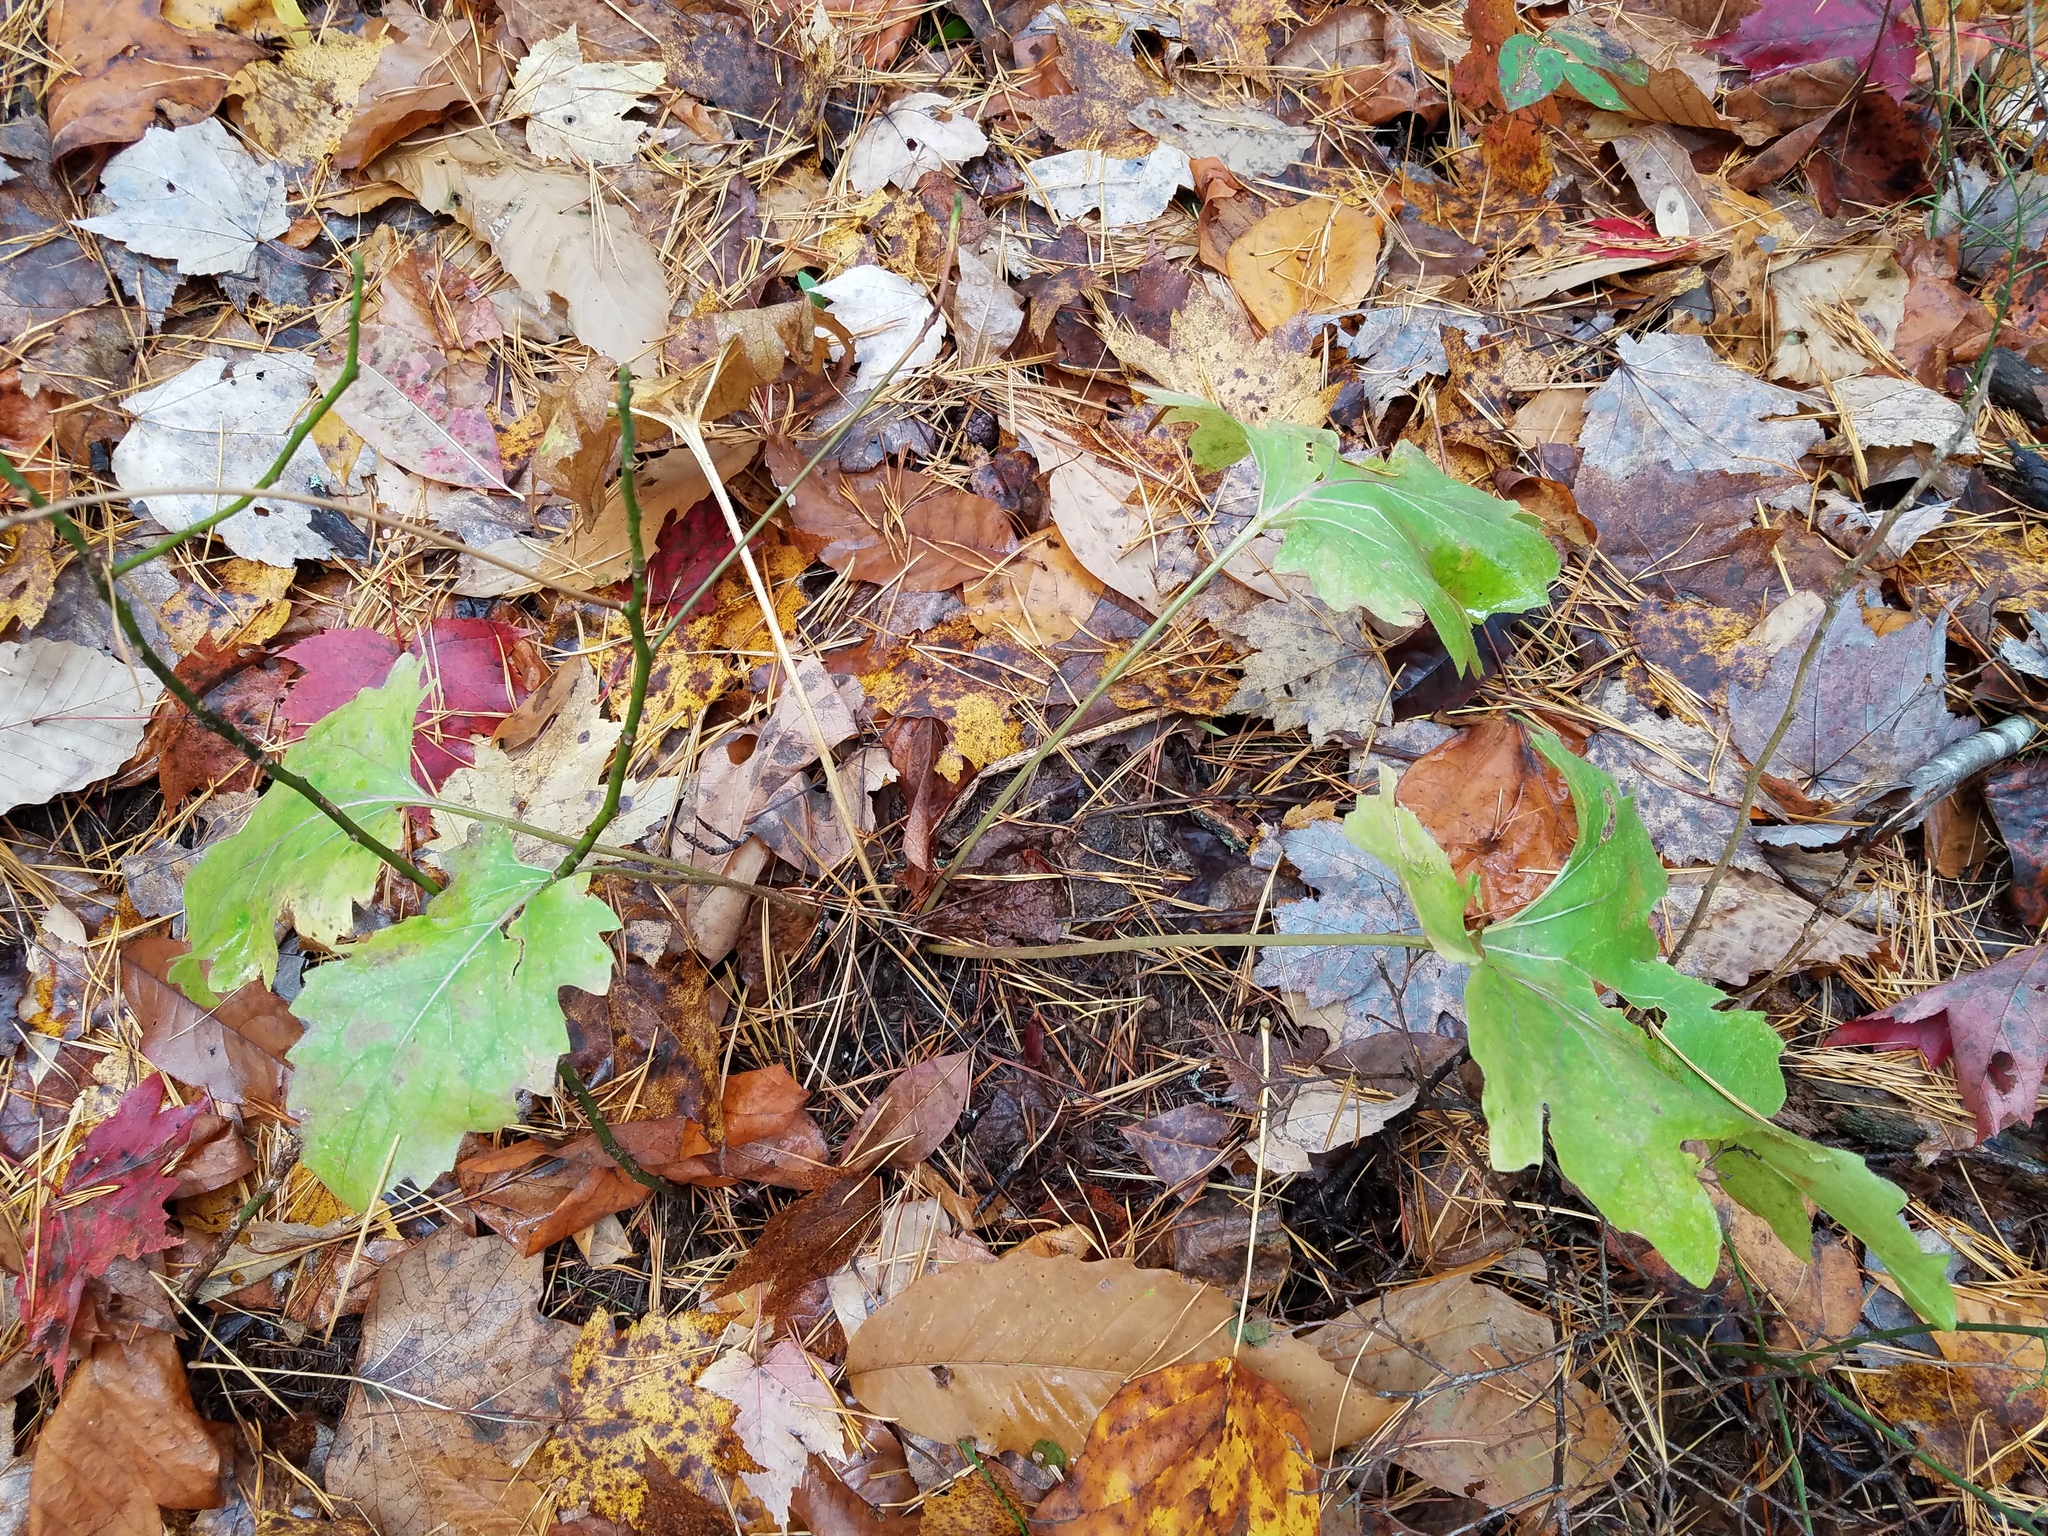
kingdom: Plantae
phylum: Tracheophyta
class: Magnoliopsida
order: Asterales
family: Asteraceae
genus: Silphium
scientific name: Silphium compositum
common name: Lesser basal-leaf rosinweed
